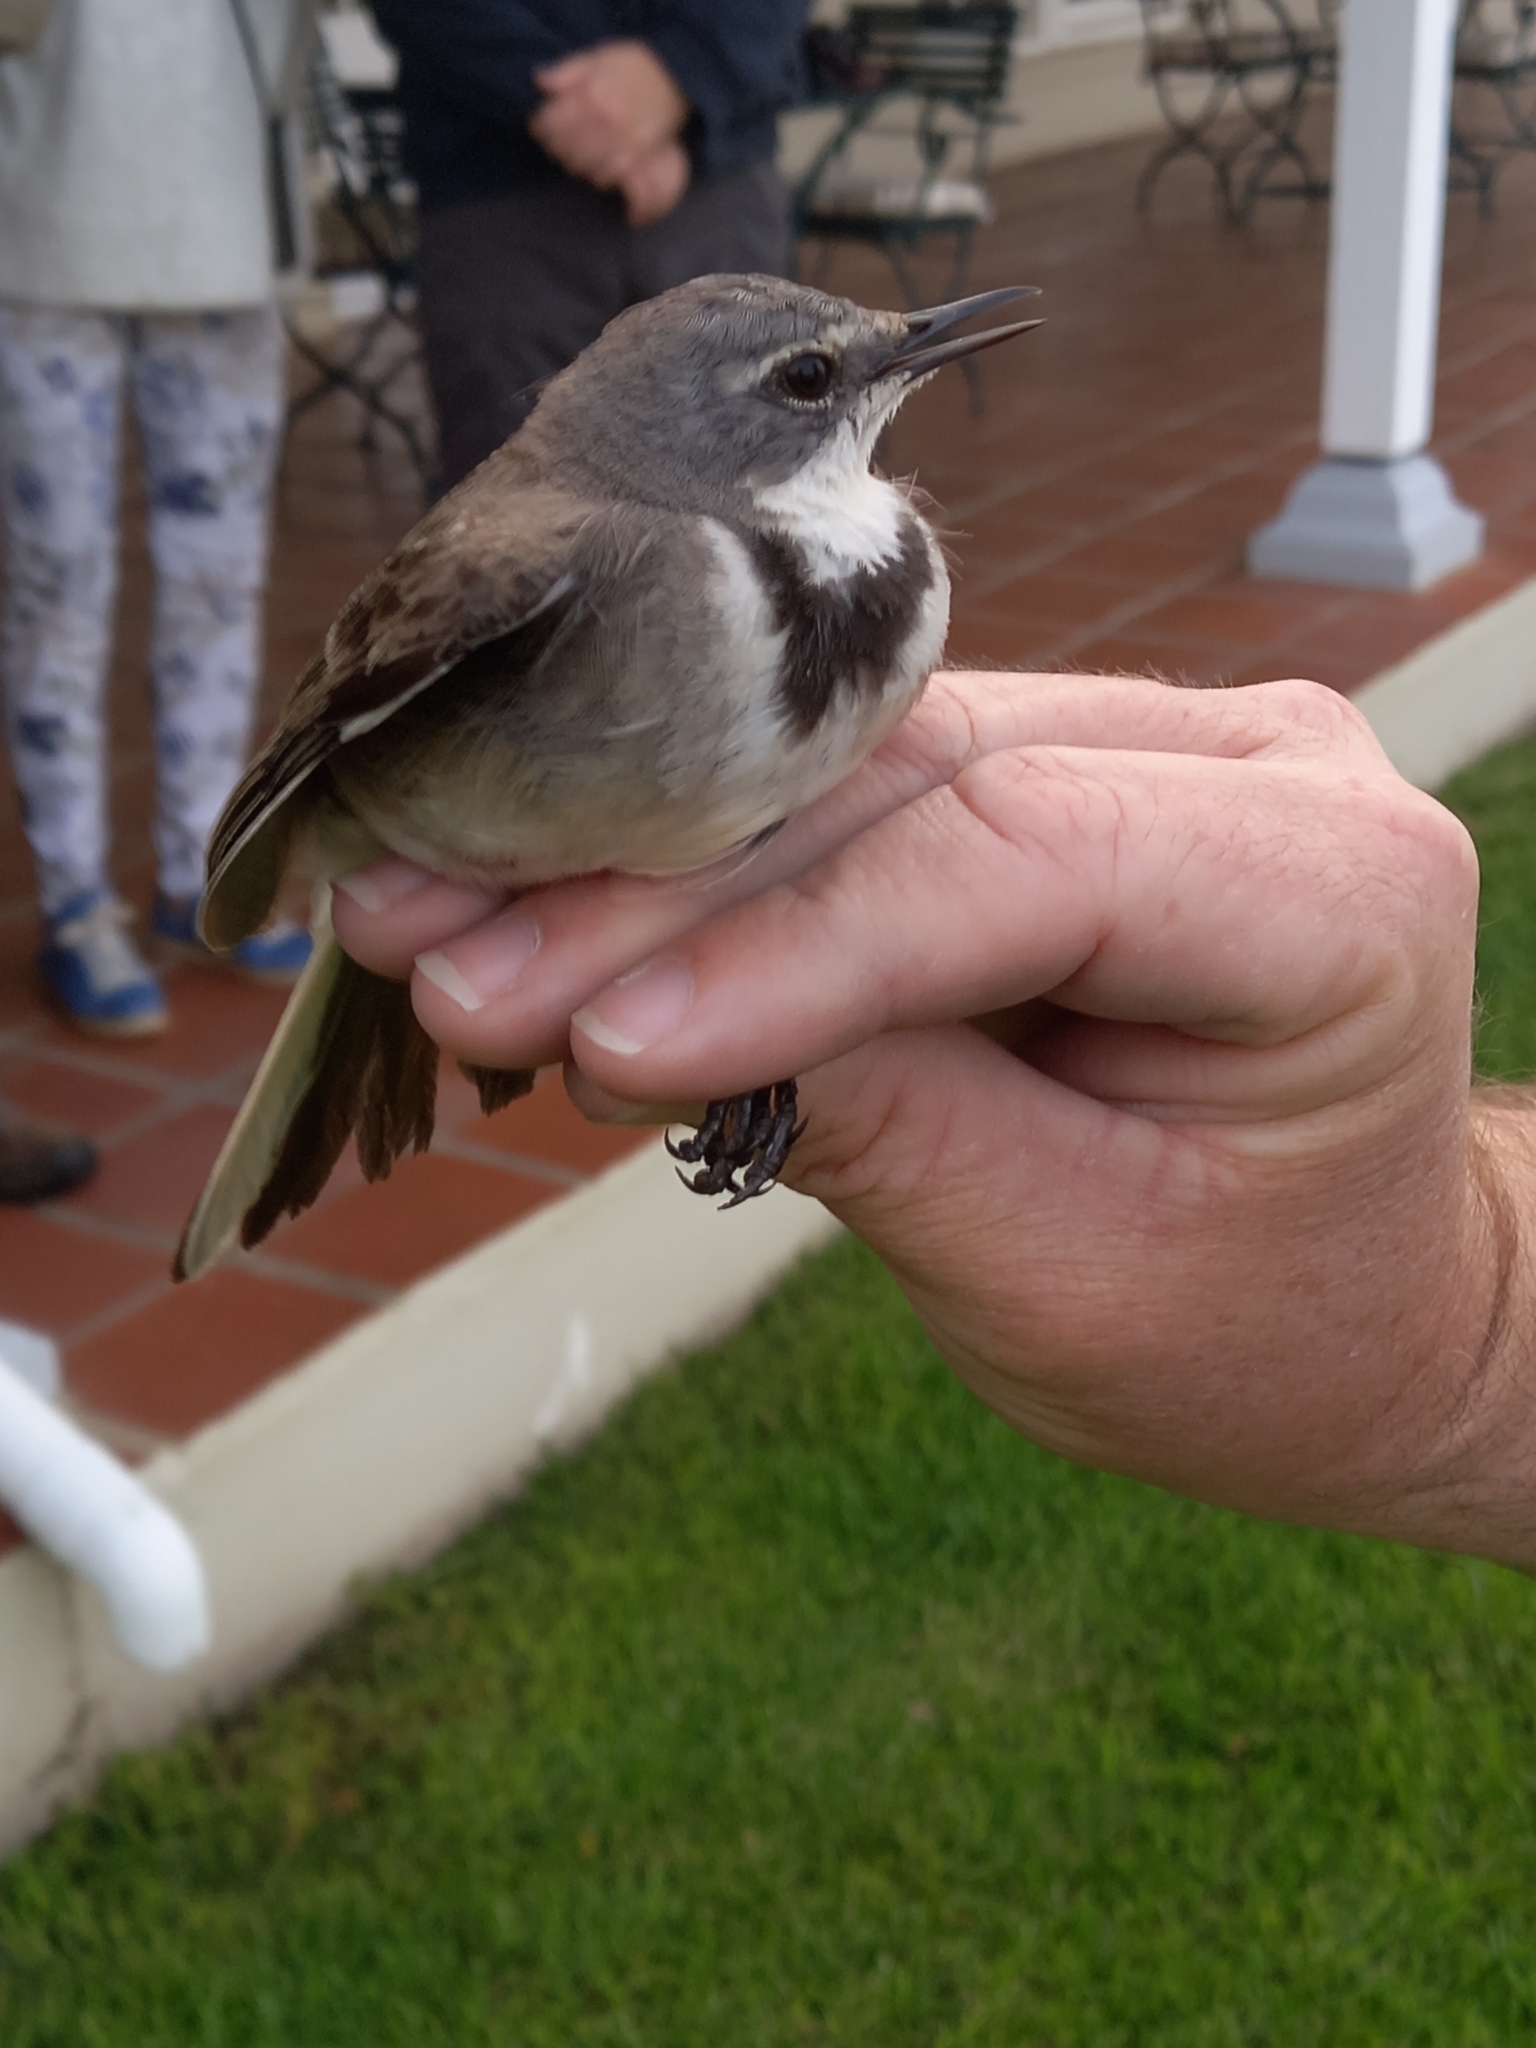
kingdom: Animalia
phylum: Chordata
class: Aves
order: Passeriformes
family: Motacillidae
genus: Motacilla
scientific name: Motacilla capensis
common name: Cape wagtail
